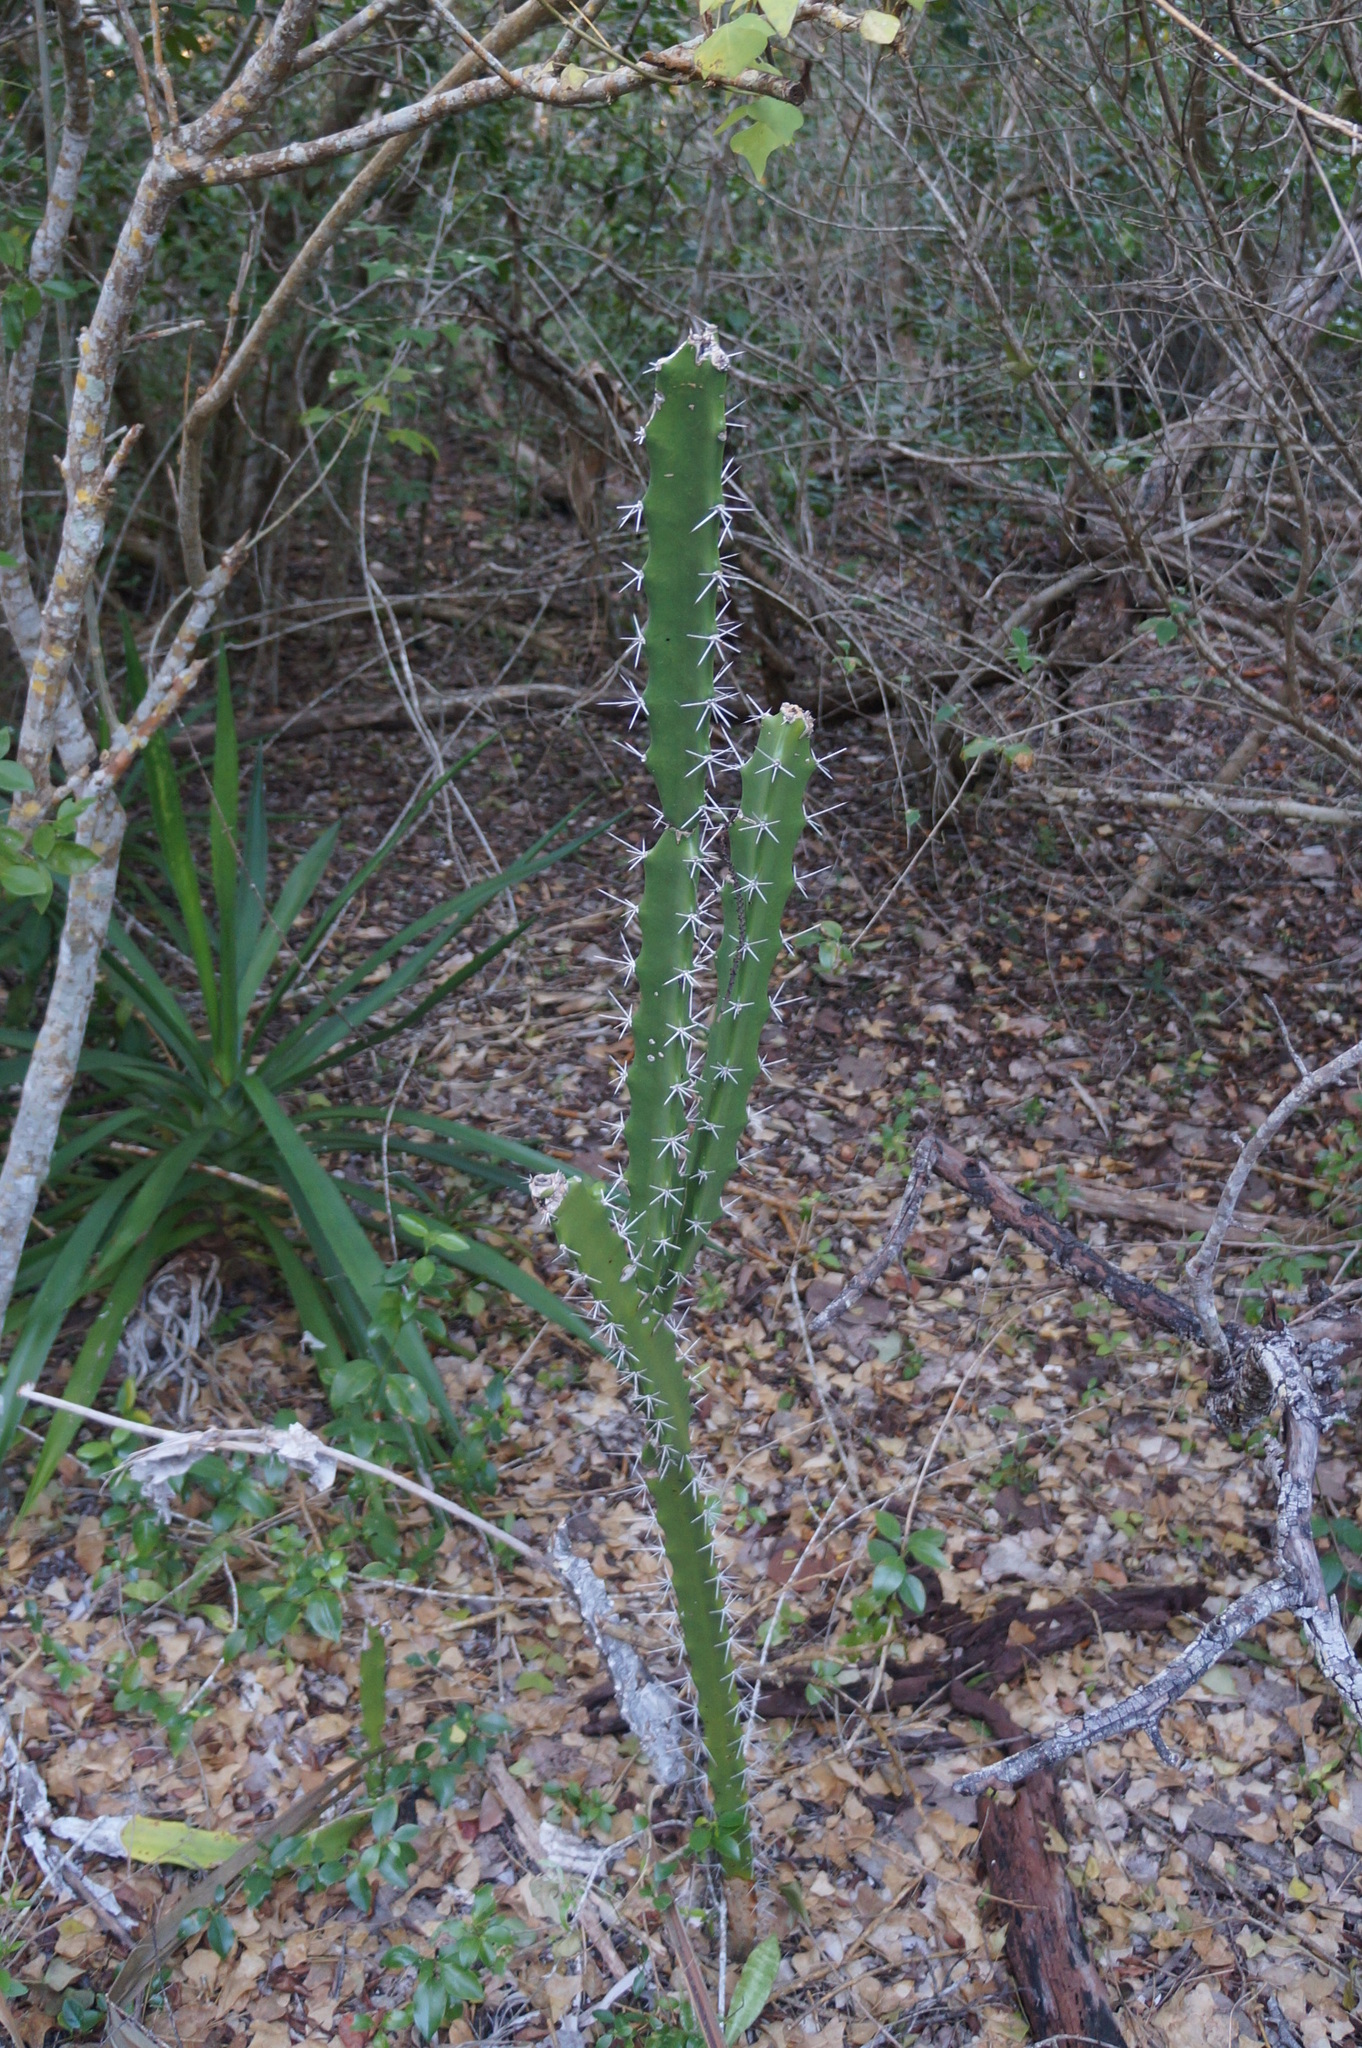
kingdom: Plantae
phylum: Tracheophyta
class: Magnoliopsida
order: Caryophyllales
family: Cactaceae
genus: Acanthocereus
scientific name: Acanthocereus tetragonus
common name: Triangle cactus
